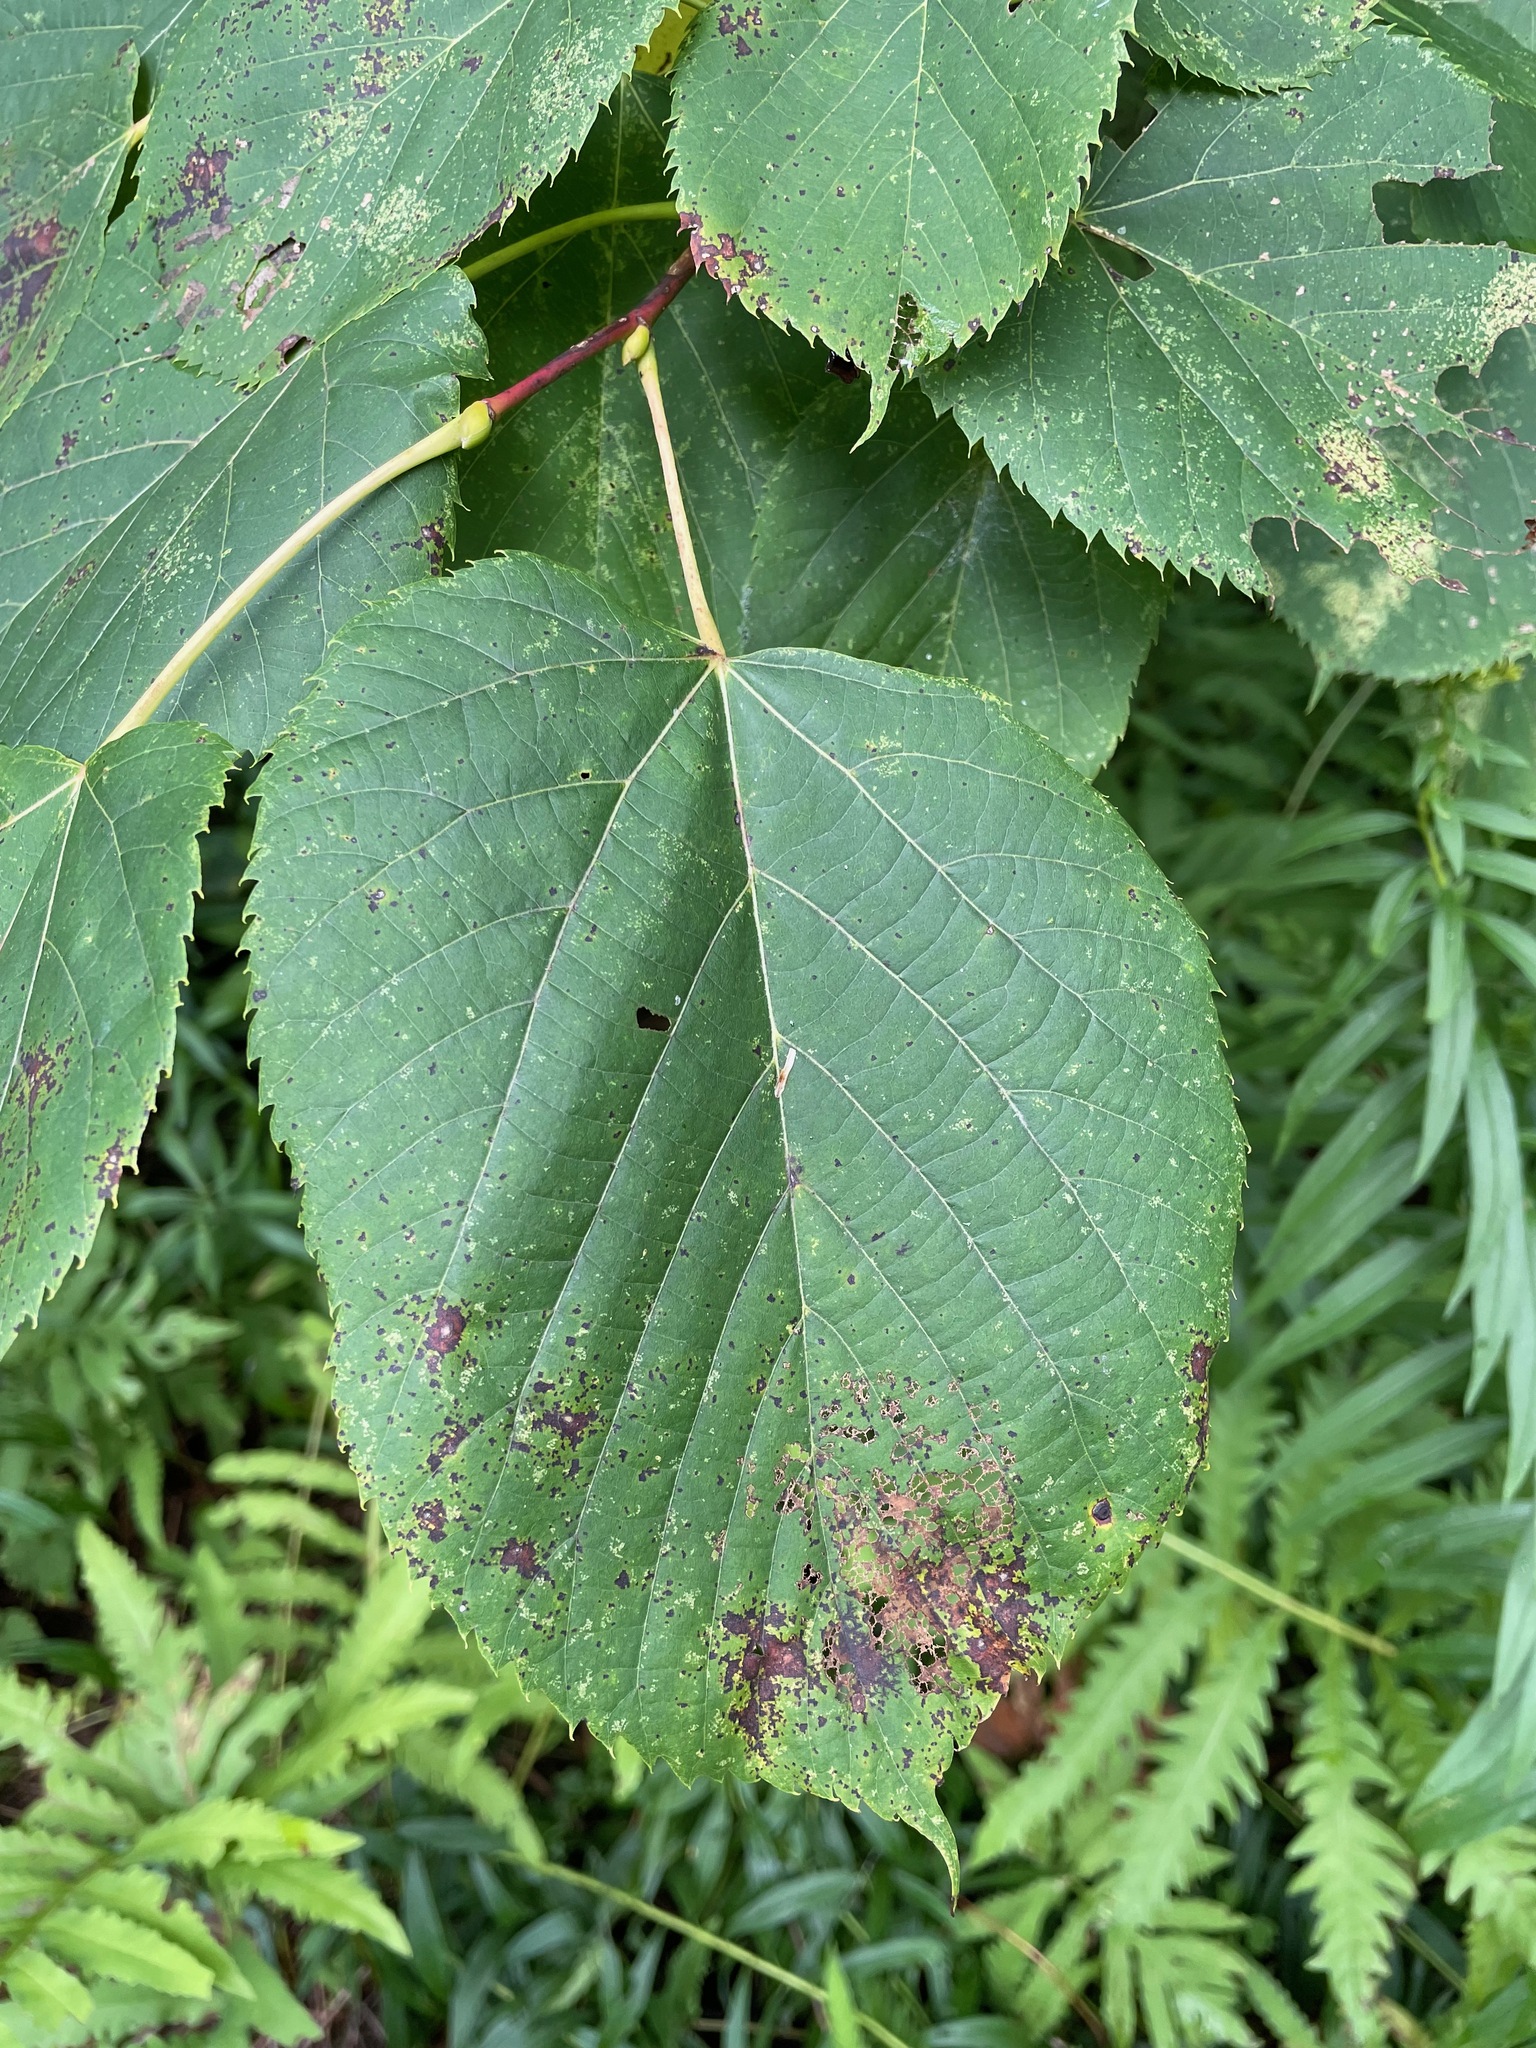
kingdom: Plantae
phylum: Tracheophyta
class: Magnoliopsida
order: Malvales
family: Malvaceae
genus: Tilia
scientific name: Tilia americana
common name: Basswood
